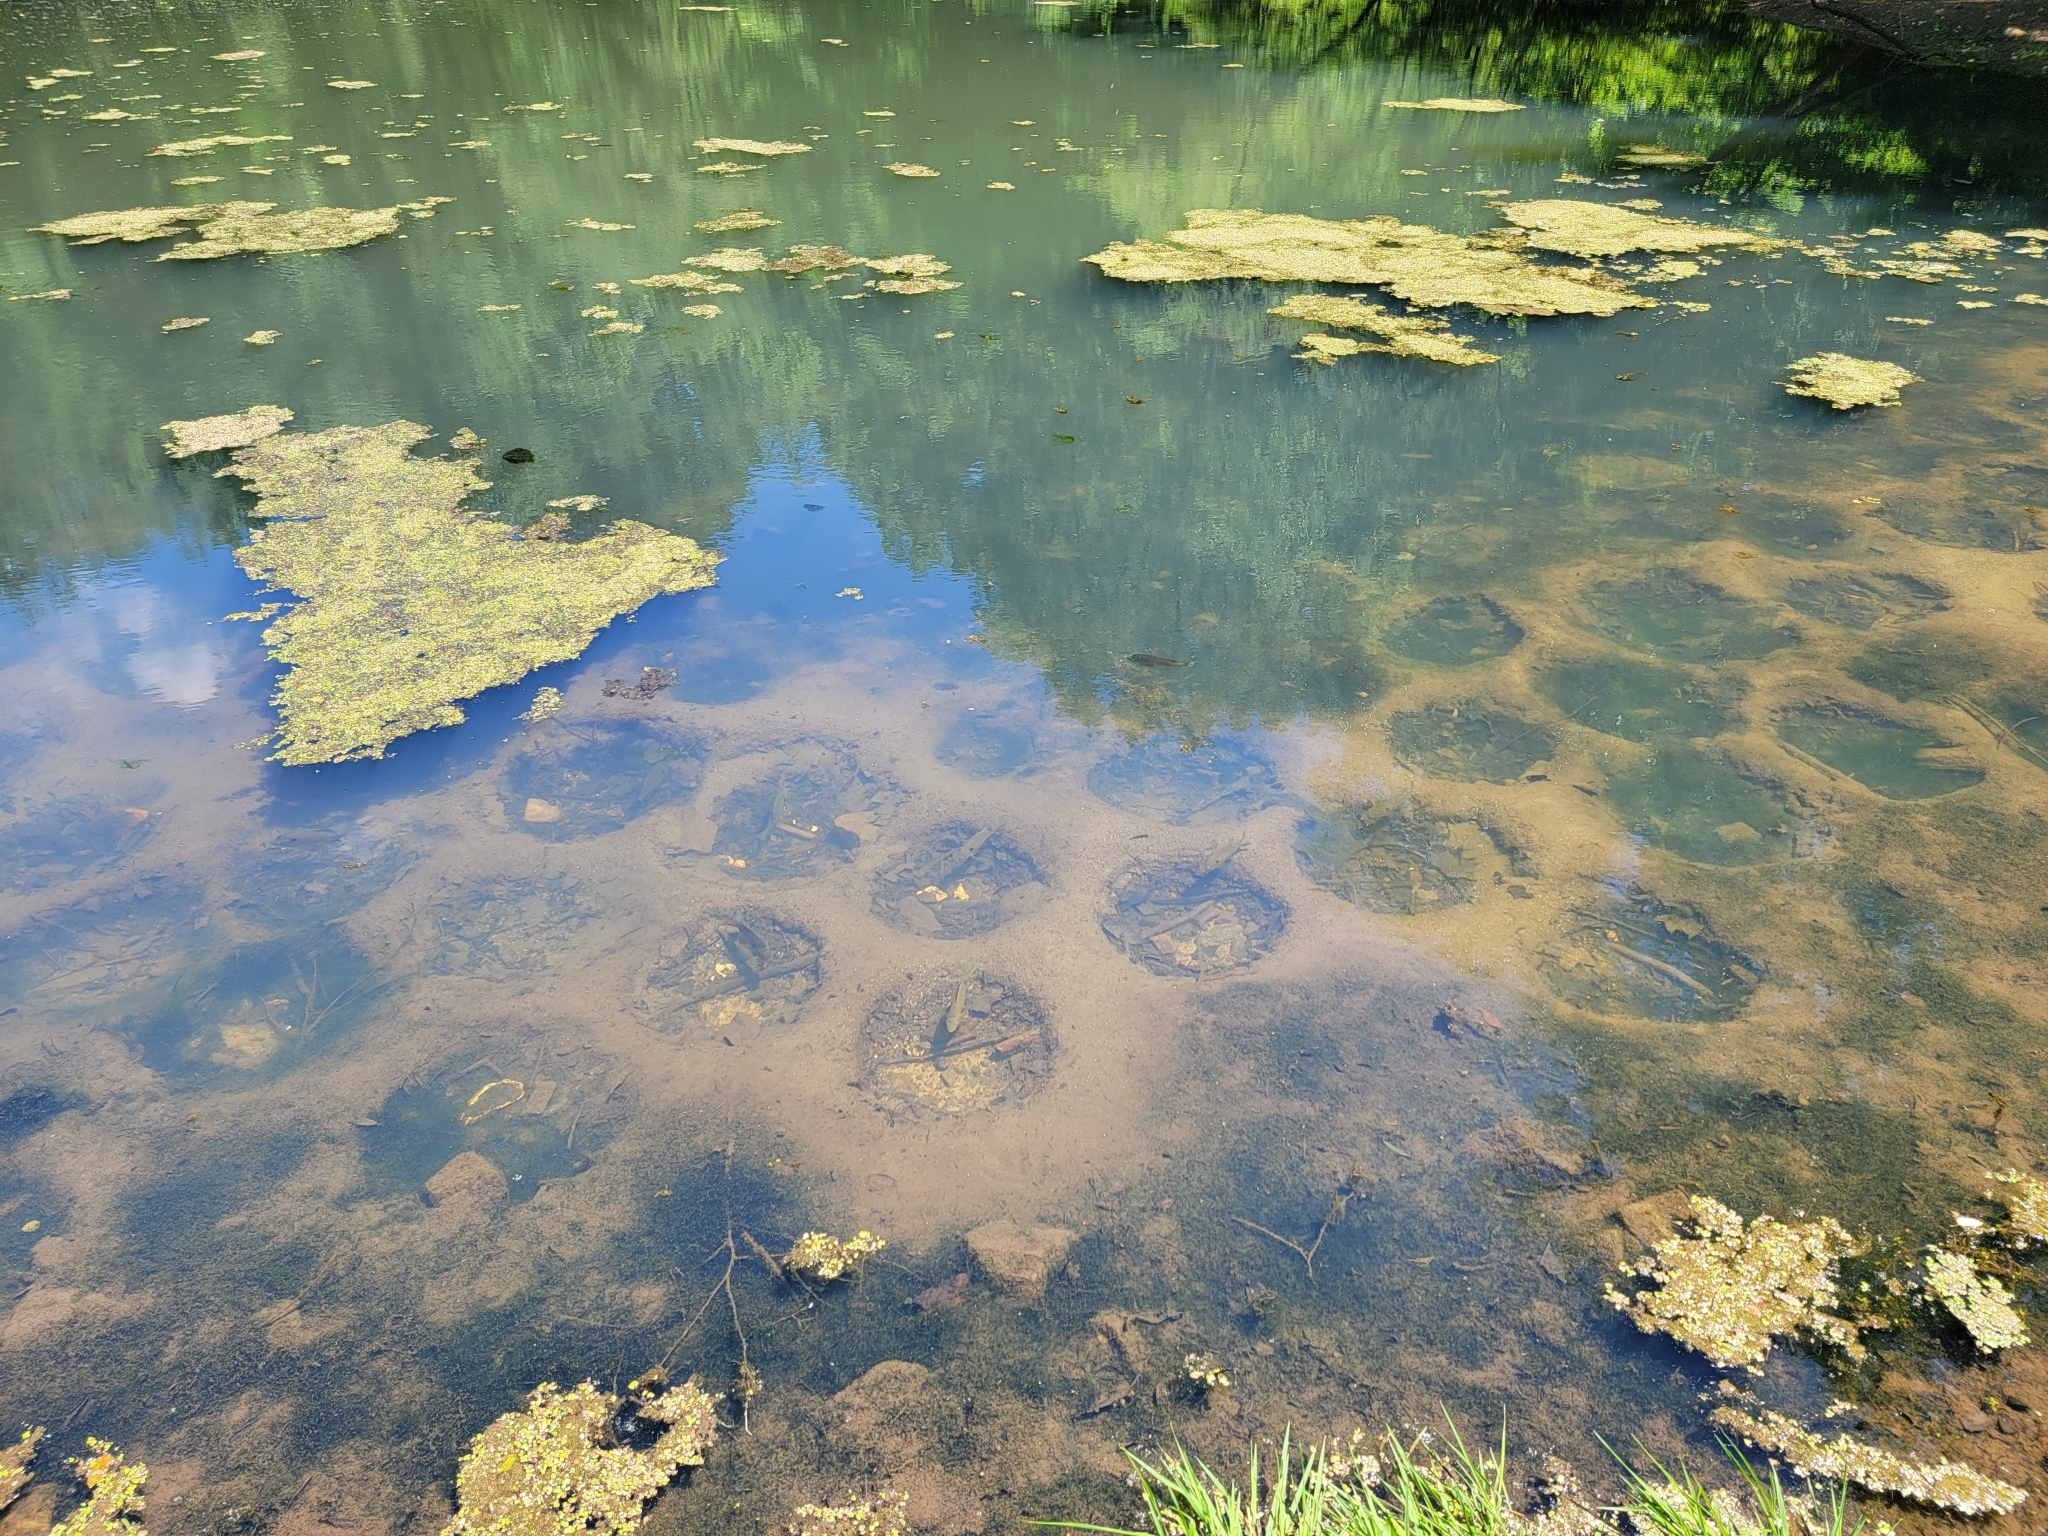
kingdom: Animalia
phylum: Chordata
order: Perciformes
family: Centrarchidae
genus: Lepomis
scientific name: Lepomis macrochirus
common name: Bluegill
